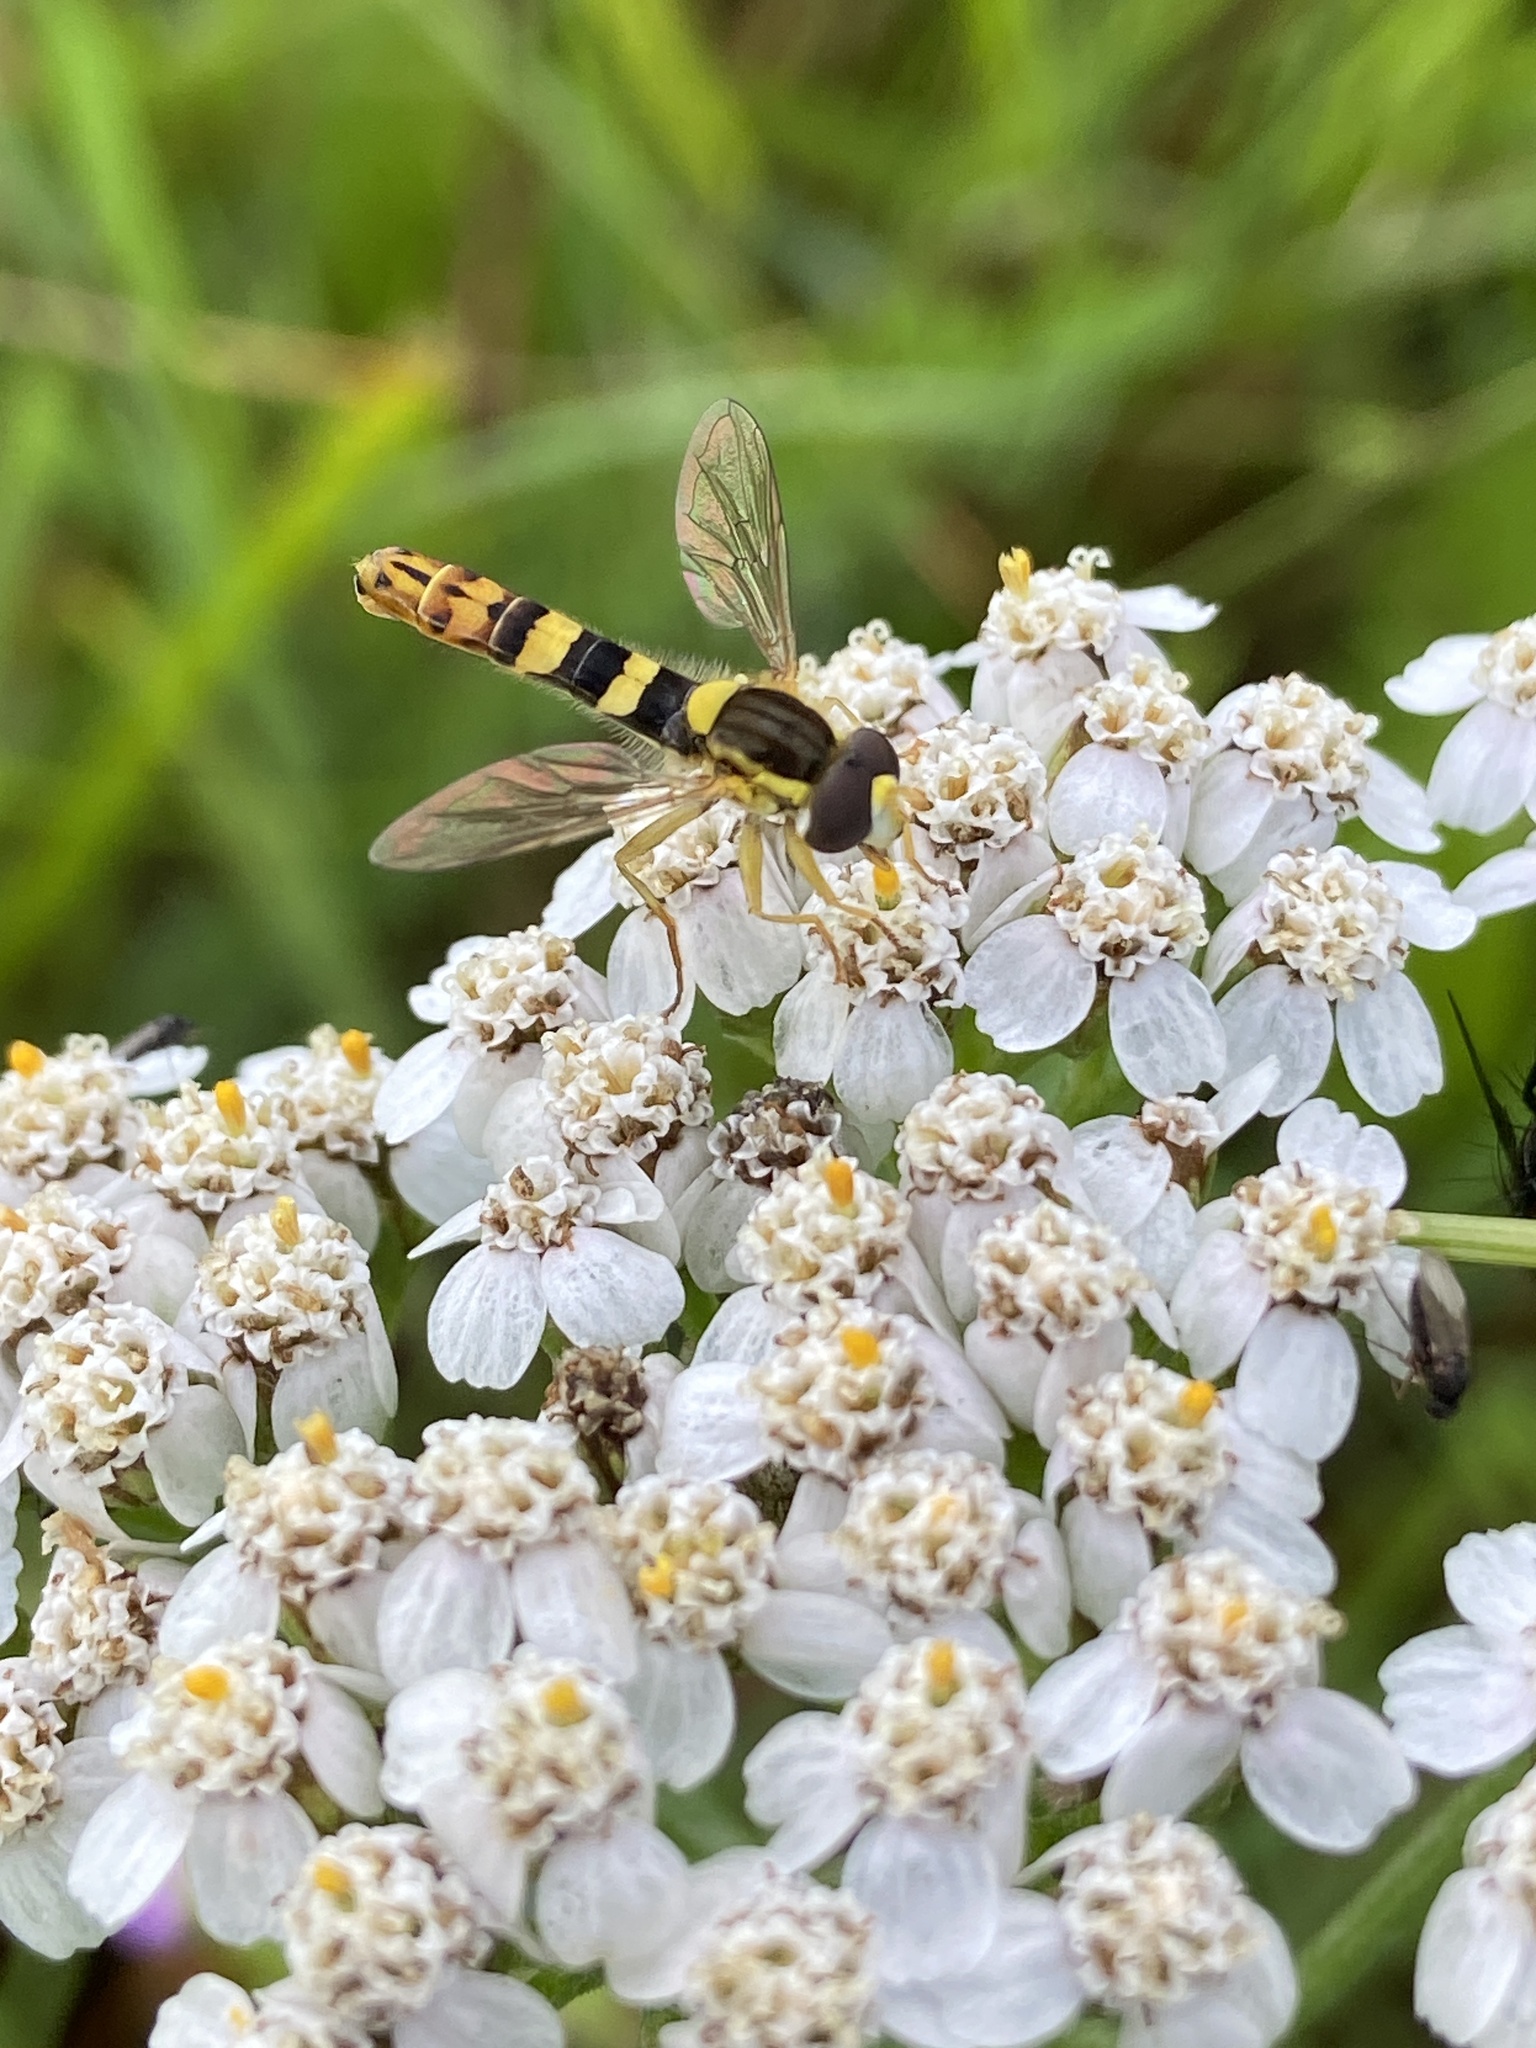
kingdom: Animalia
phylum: Arthropoda
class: Insecta
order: Diptera
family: Syrphidae
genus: Sphaerophoria
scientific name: Sphaerophoria scripta
